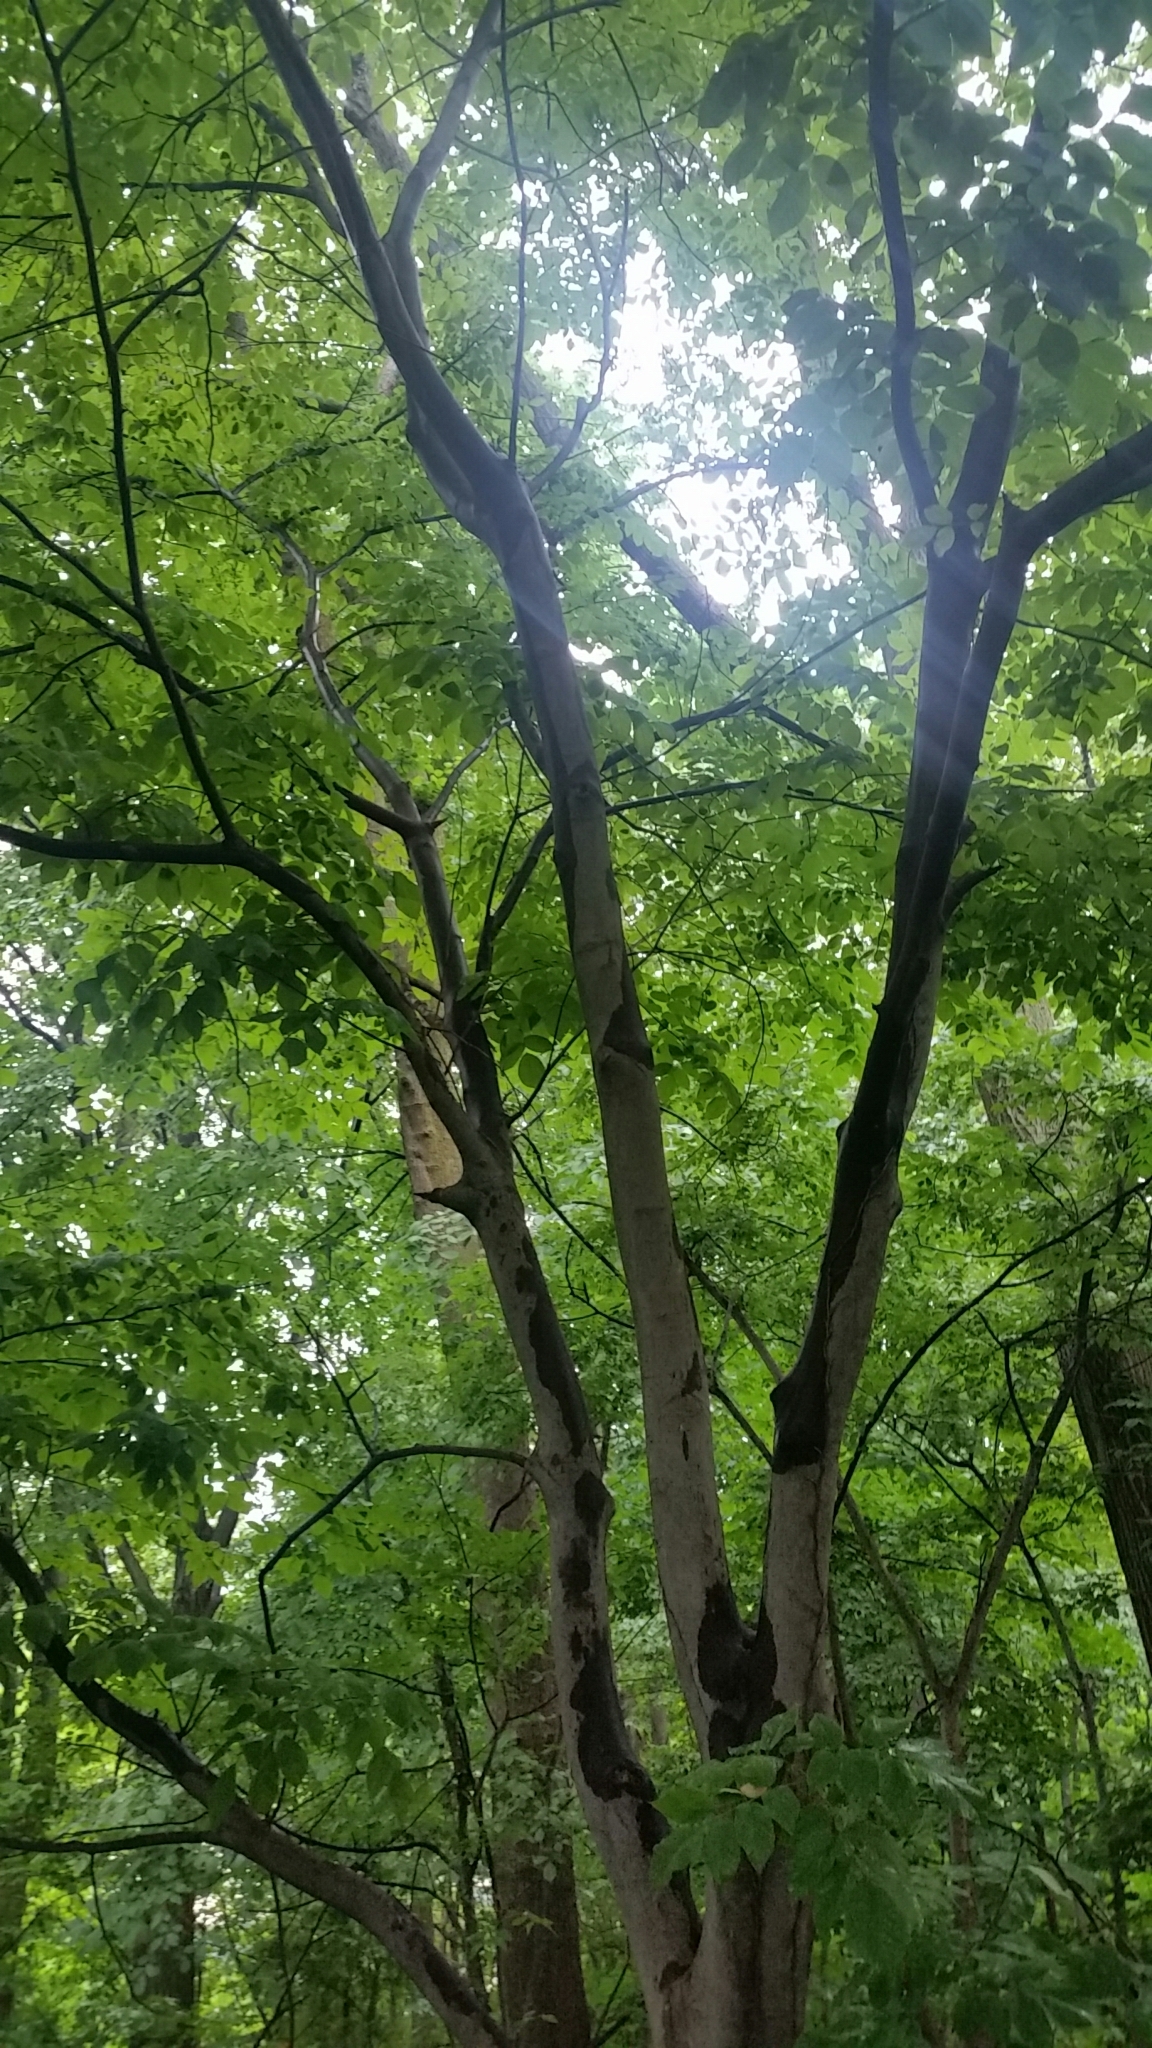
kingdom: Plantae
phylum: Tracheophyta
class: Magnoliopsida
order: Fabales
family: Fabaceae
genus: Cladrastis
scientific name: Cladrastis kentukea
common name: Kentucky yellow-wood
